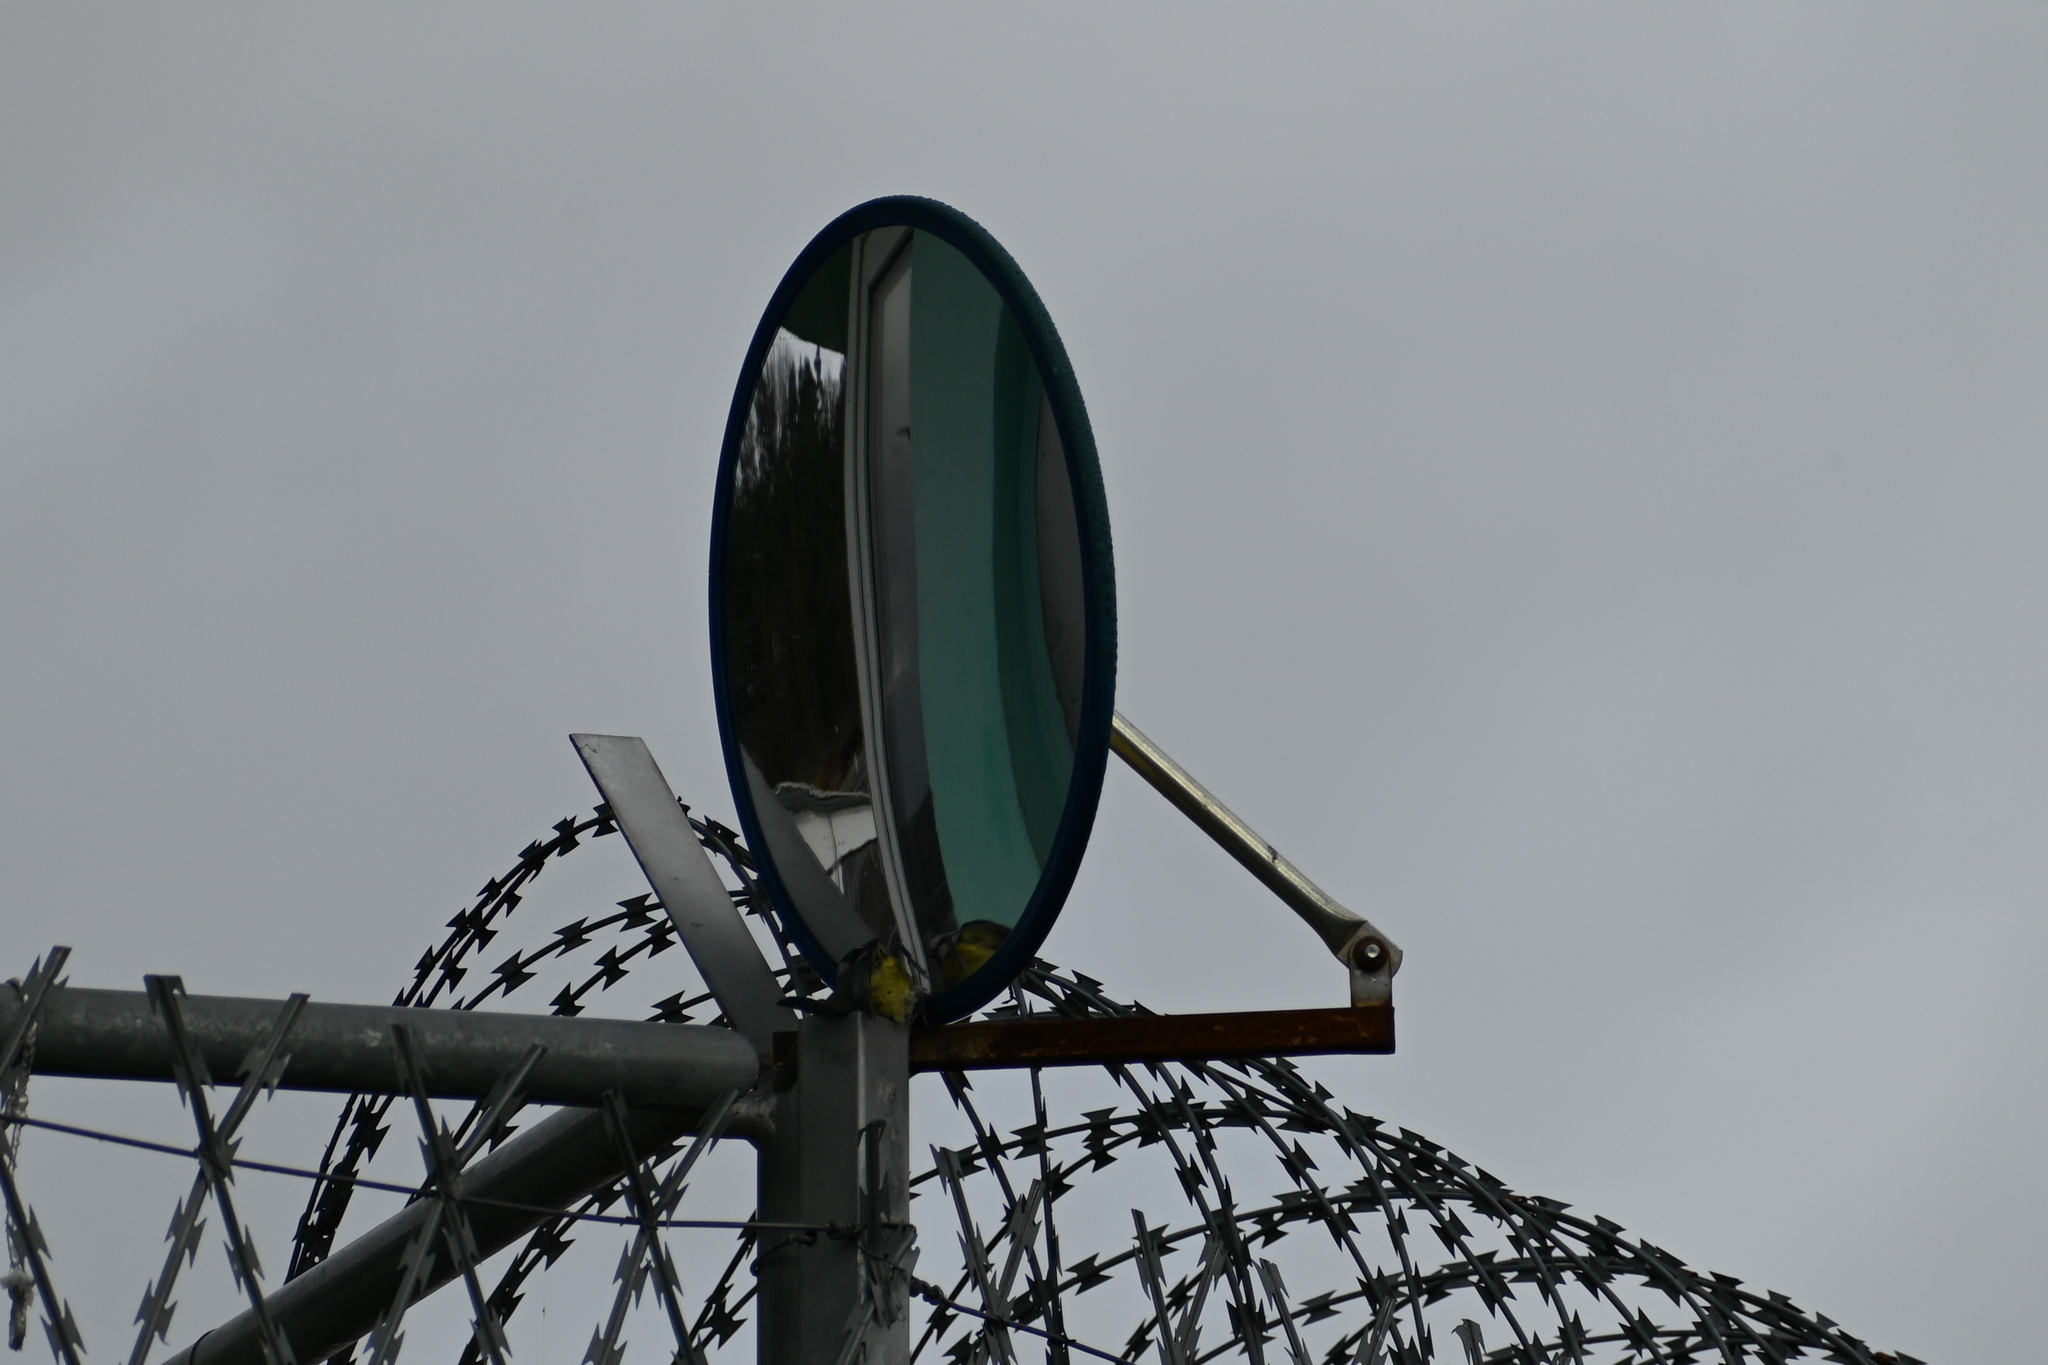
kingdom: Animalia
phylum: Chordata
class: Aves
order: Passeriformes
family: Paridae
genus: Cyanistes
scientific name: Cyanistes caeruleus
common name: Eurasian blue tit
